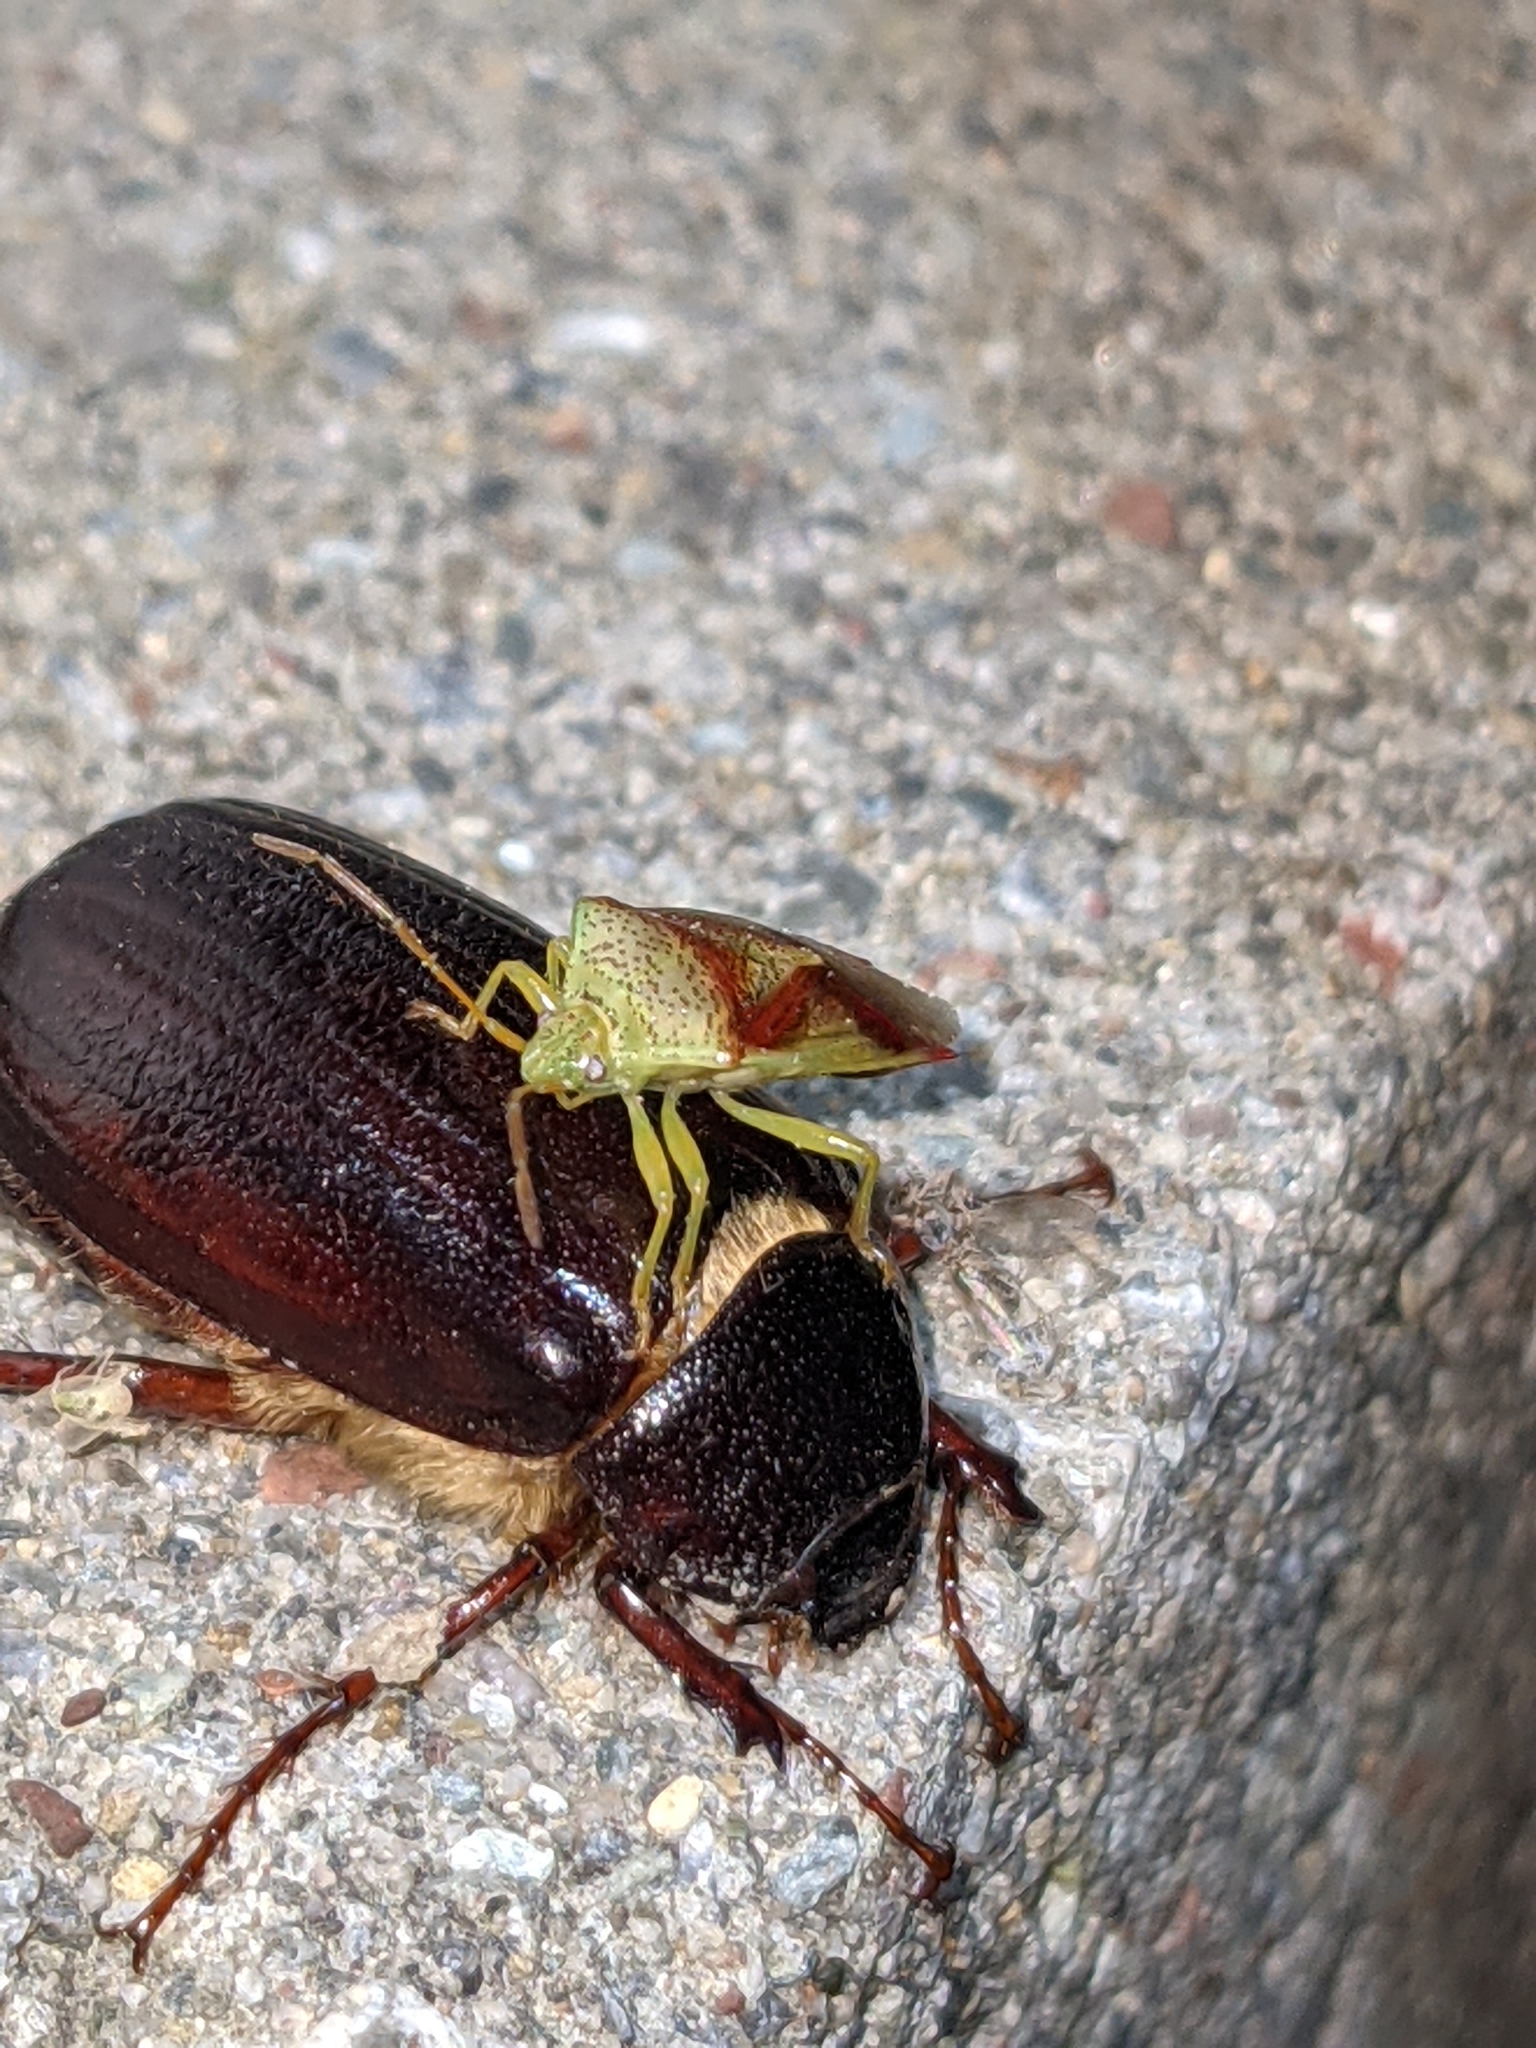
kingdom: Animalia
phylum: Arthropoda
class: Insecta
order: Hemiptera
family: Acanthosomatidae
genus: Elasmostethus
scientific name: Elasmostethus cruciatus
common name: Red-cross shield bug
